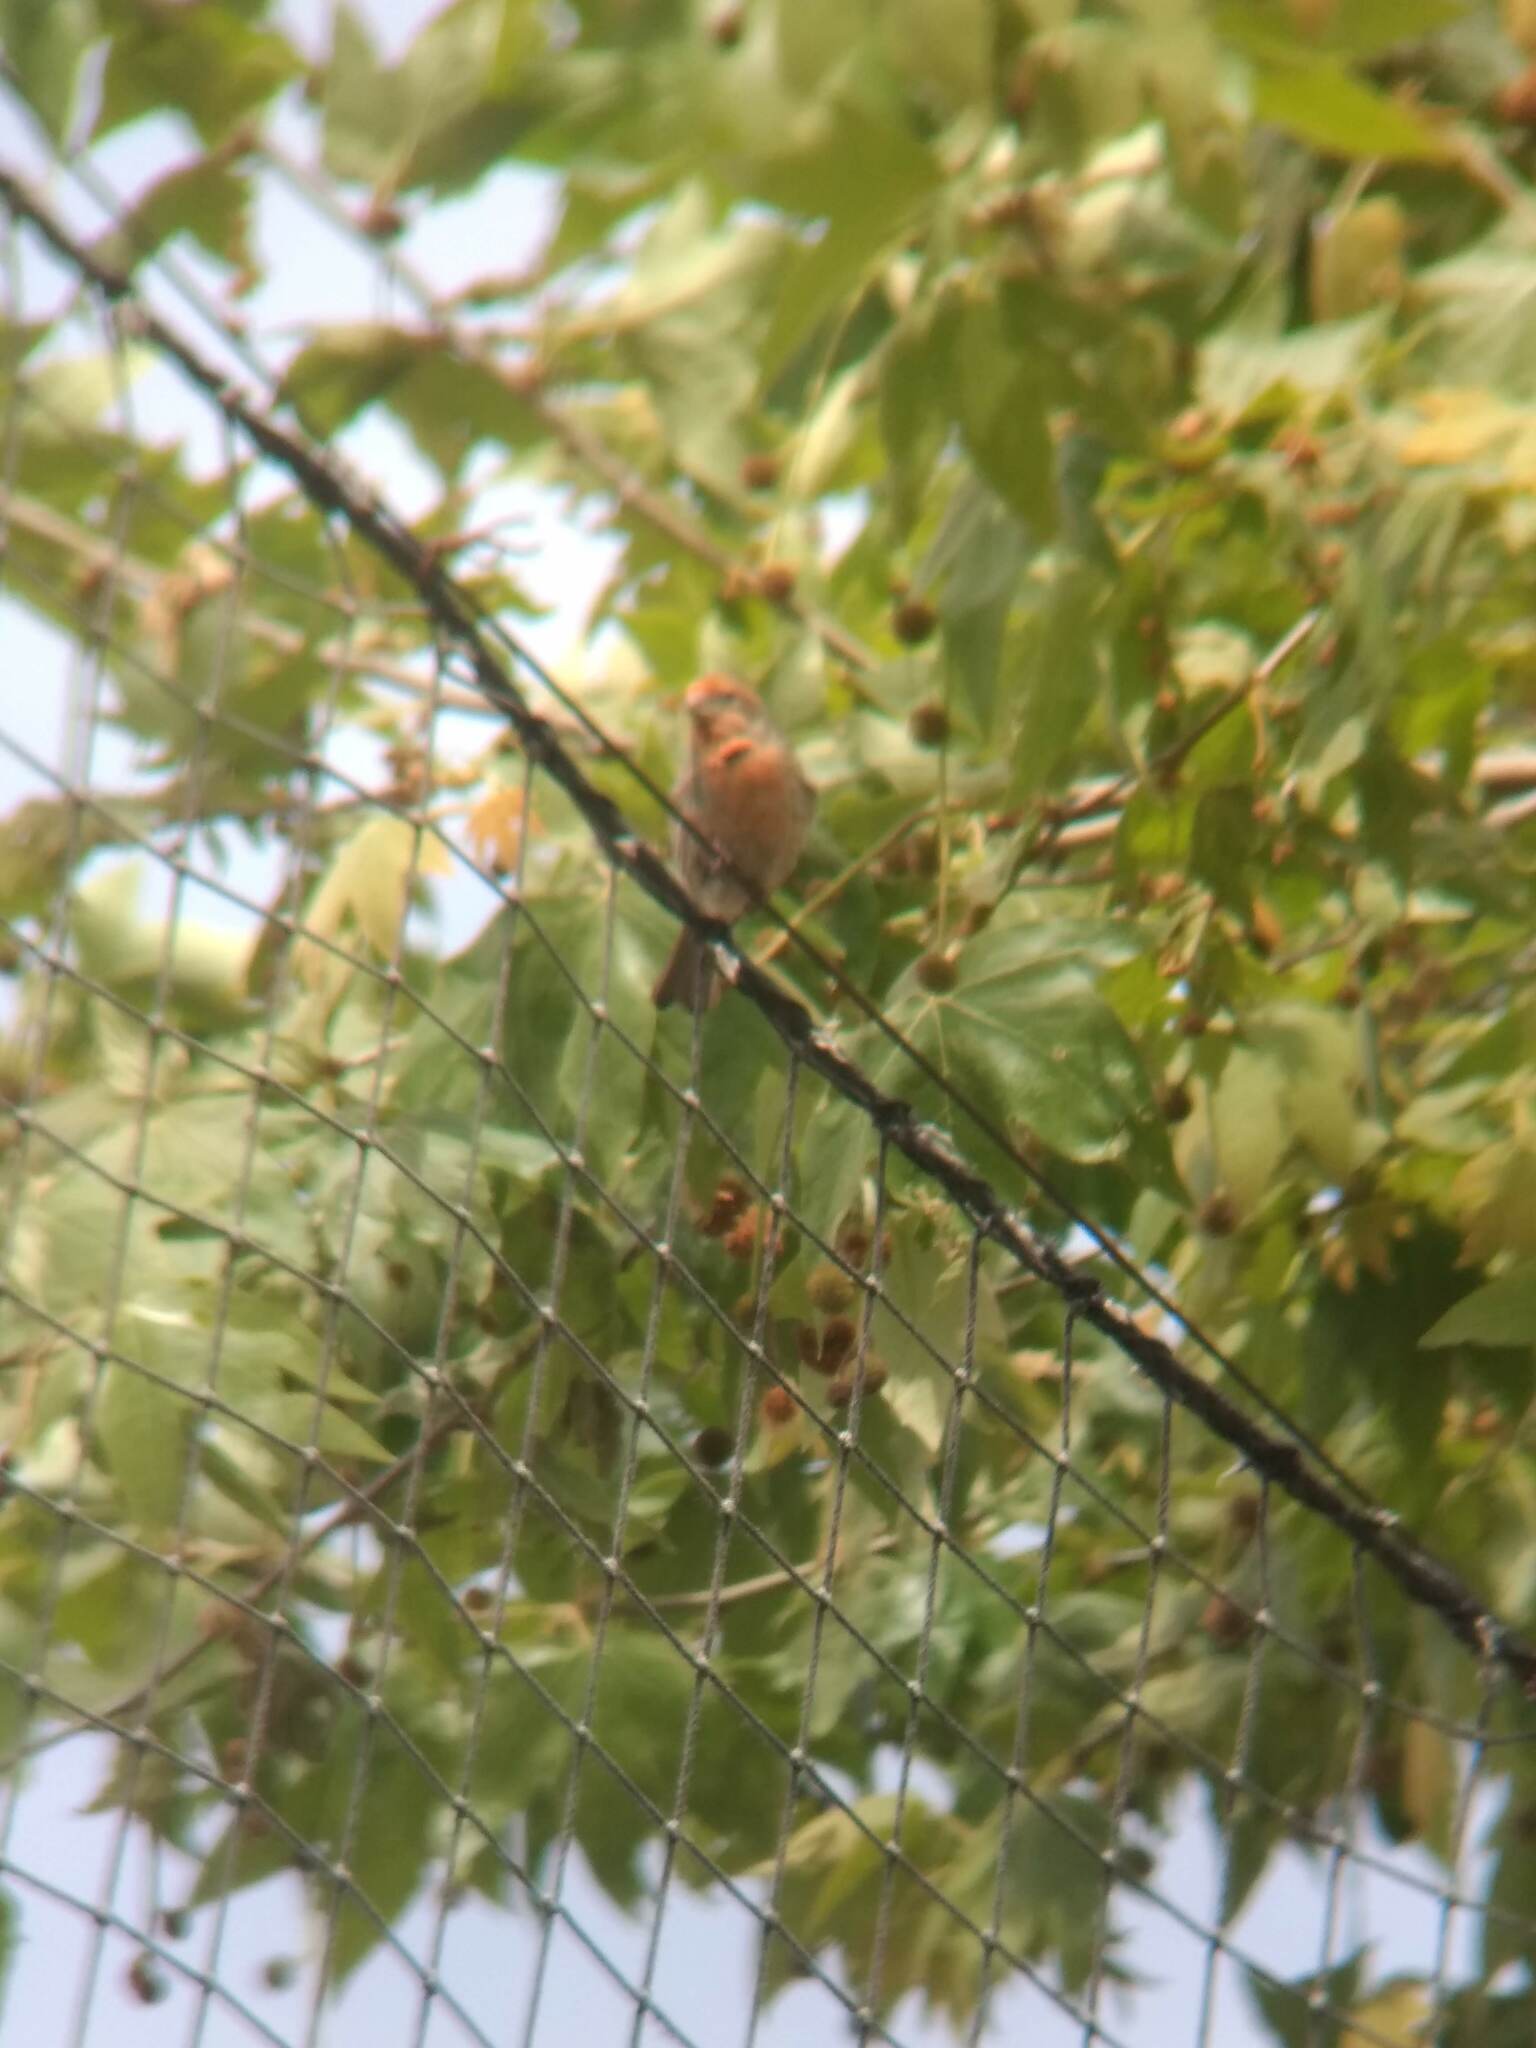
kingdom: Animalia
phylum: Chordata
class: Aves
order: Passeriformes
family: Fringillidae
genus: Haemorhous
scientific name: Haemorhous mexicanus
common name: House finch
